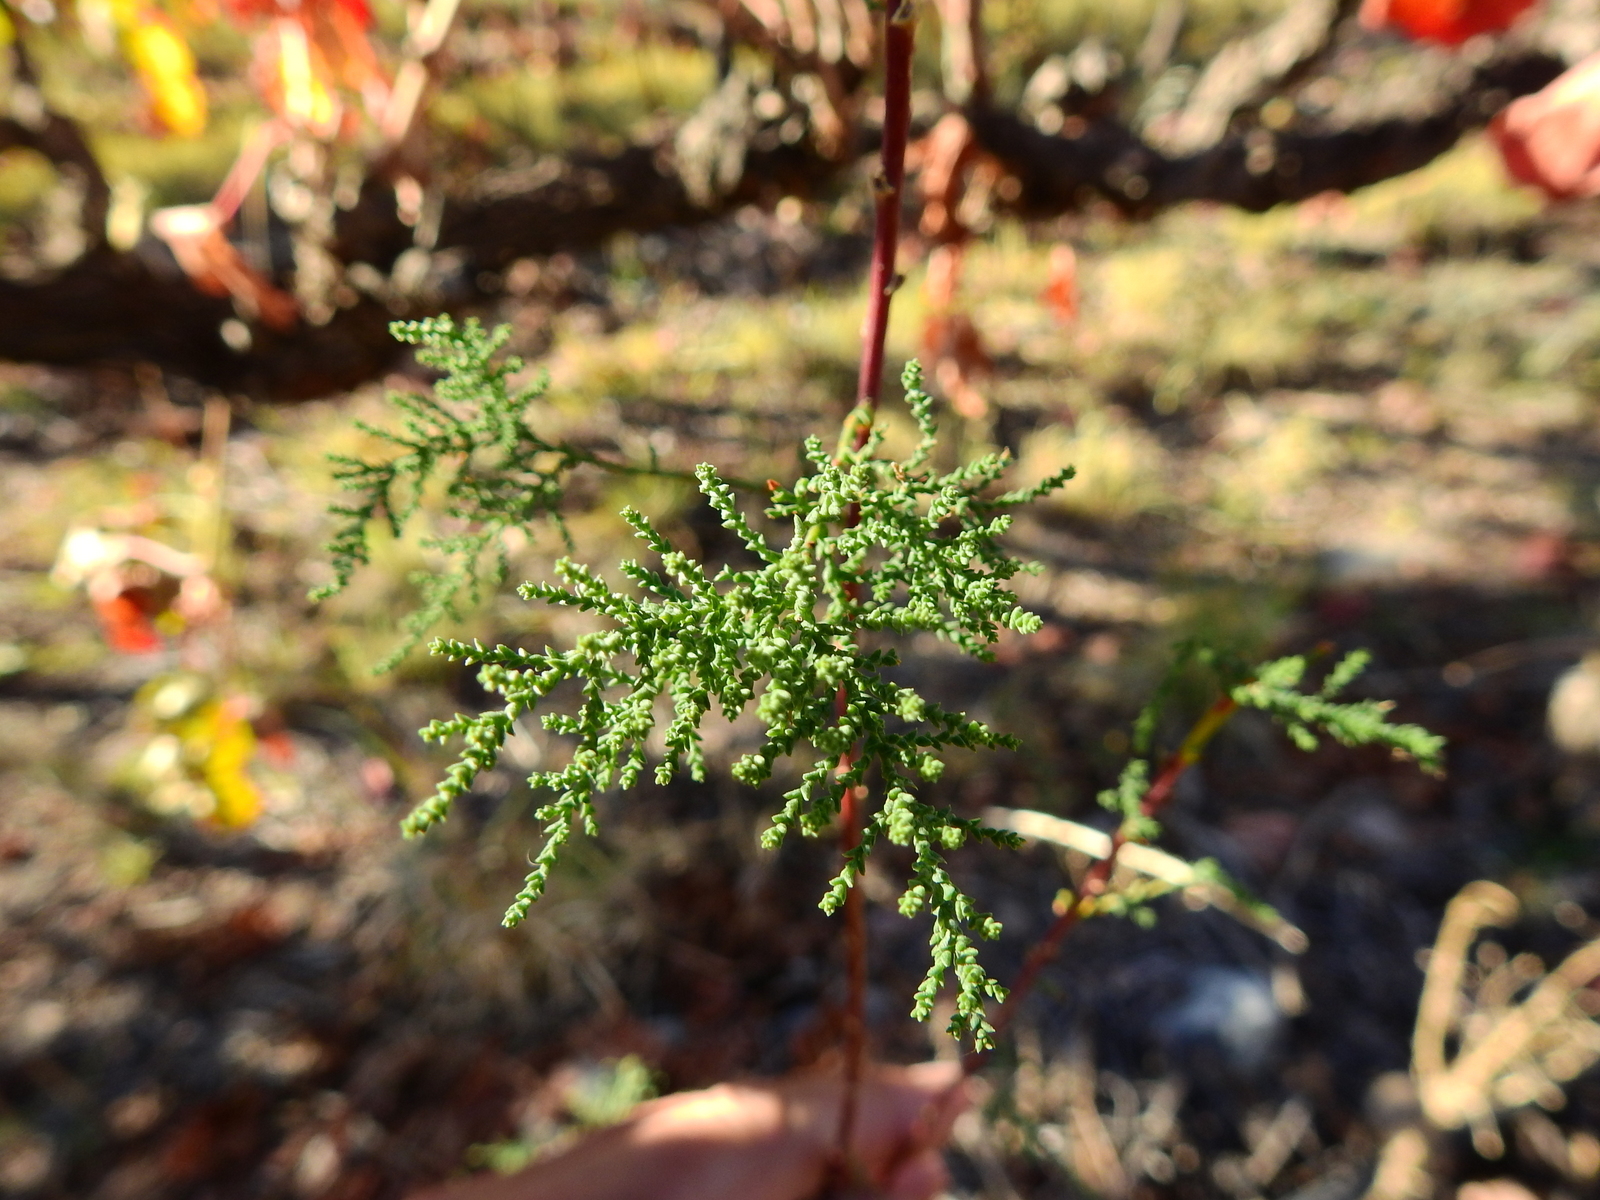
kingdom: Plantae
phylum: Tracheophyta
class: Magnoliopsida
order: Caryophyllales
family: Tamaricaceae
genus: Tamarix
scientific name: Tamarix gallica
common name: Tamarisk
